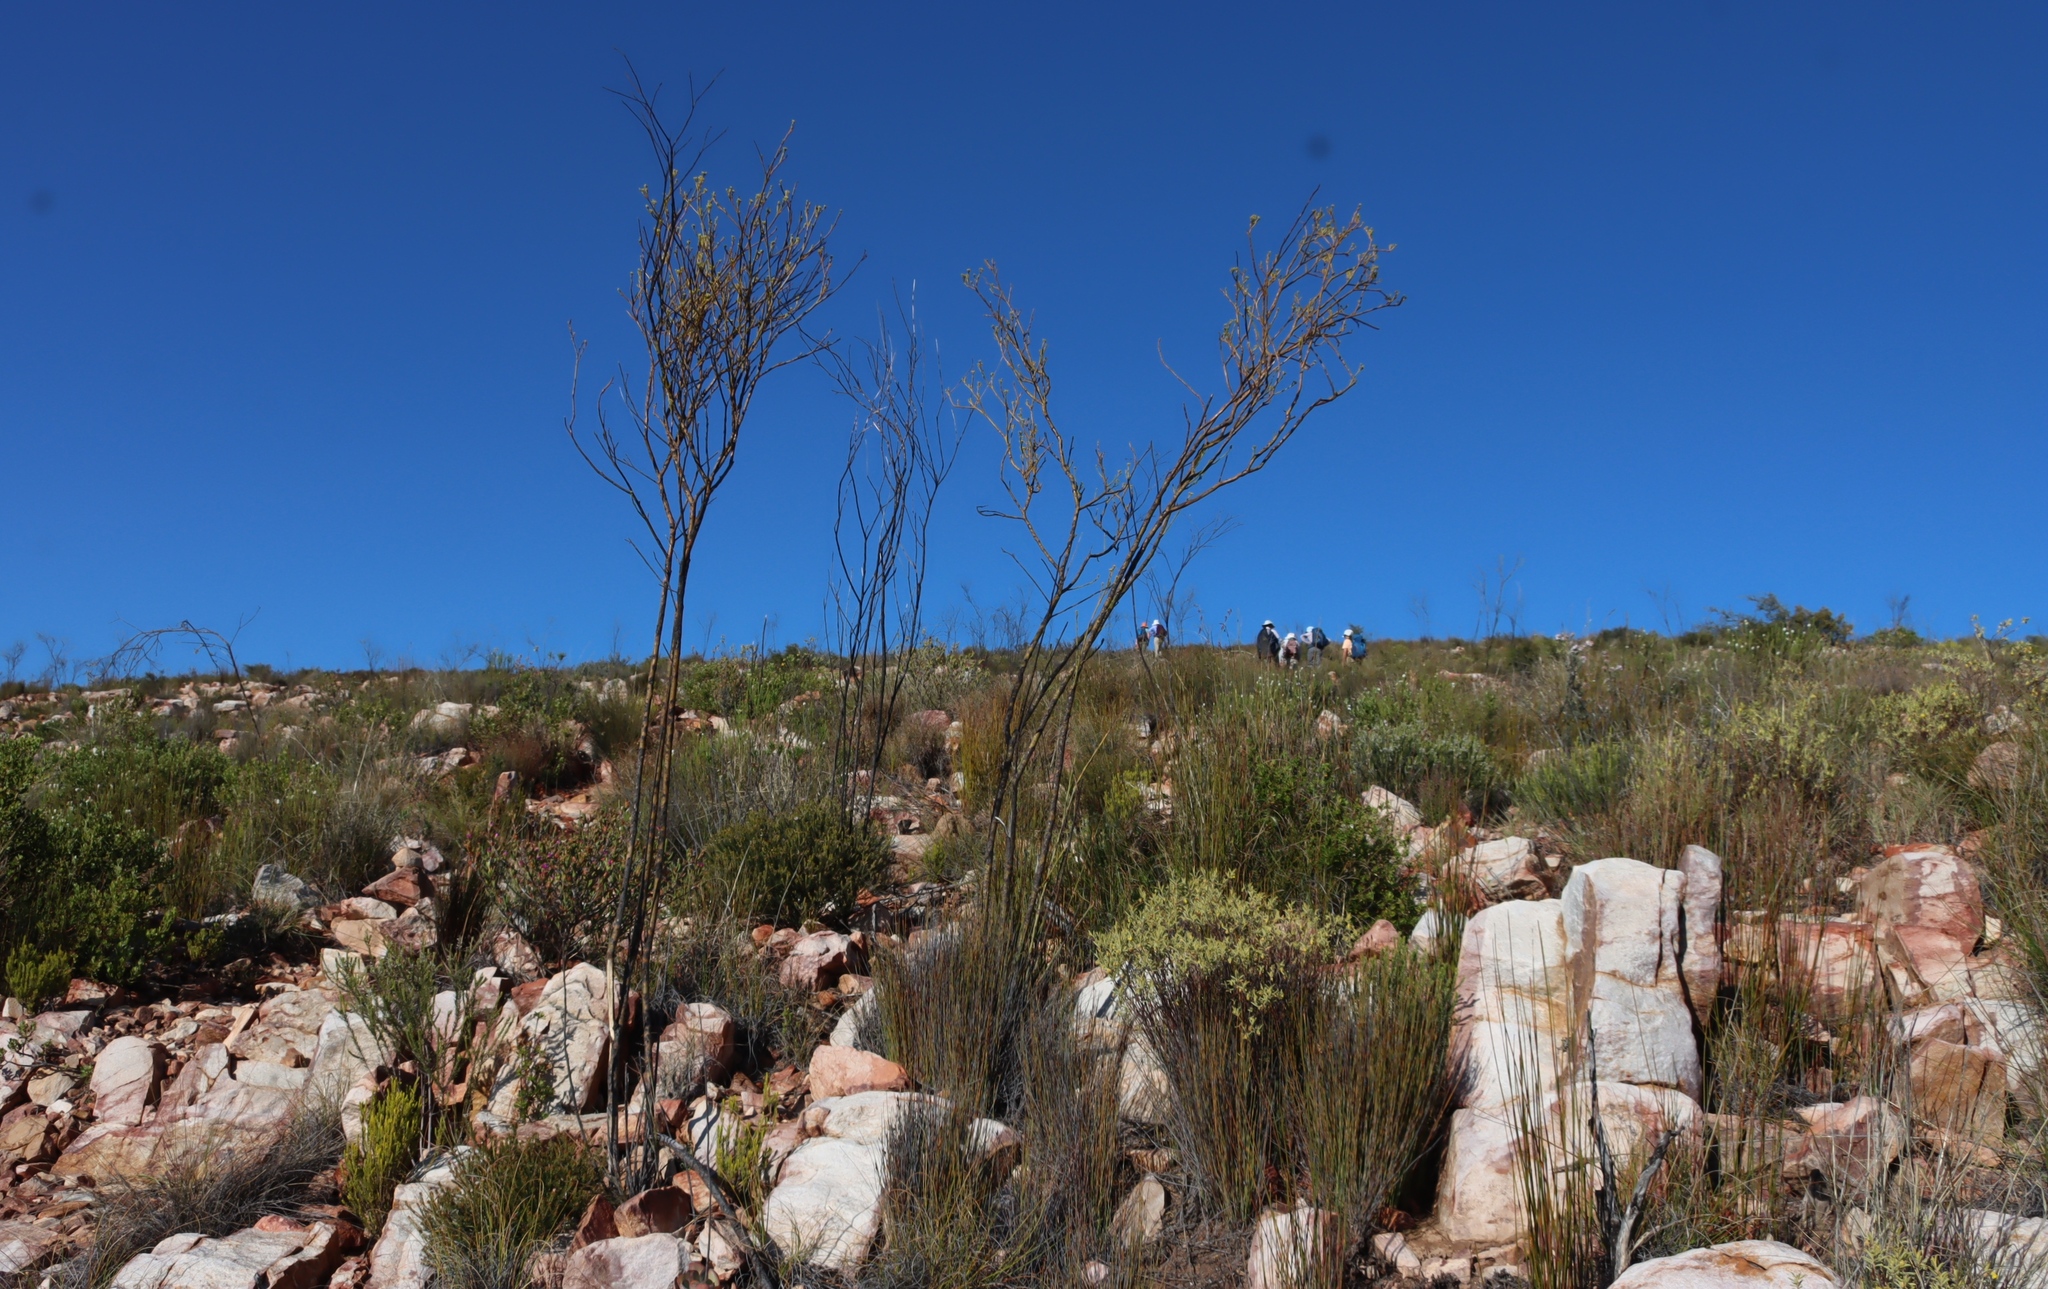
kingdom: Plantae
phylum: Tracheophyta
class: Magnoliopsida
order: Santalales
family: Thesiaceae
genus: Thesium
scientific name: Thesium strictum
